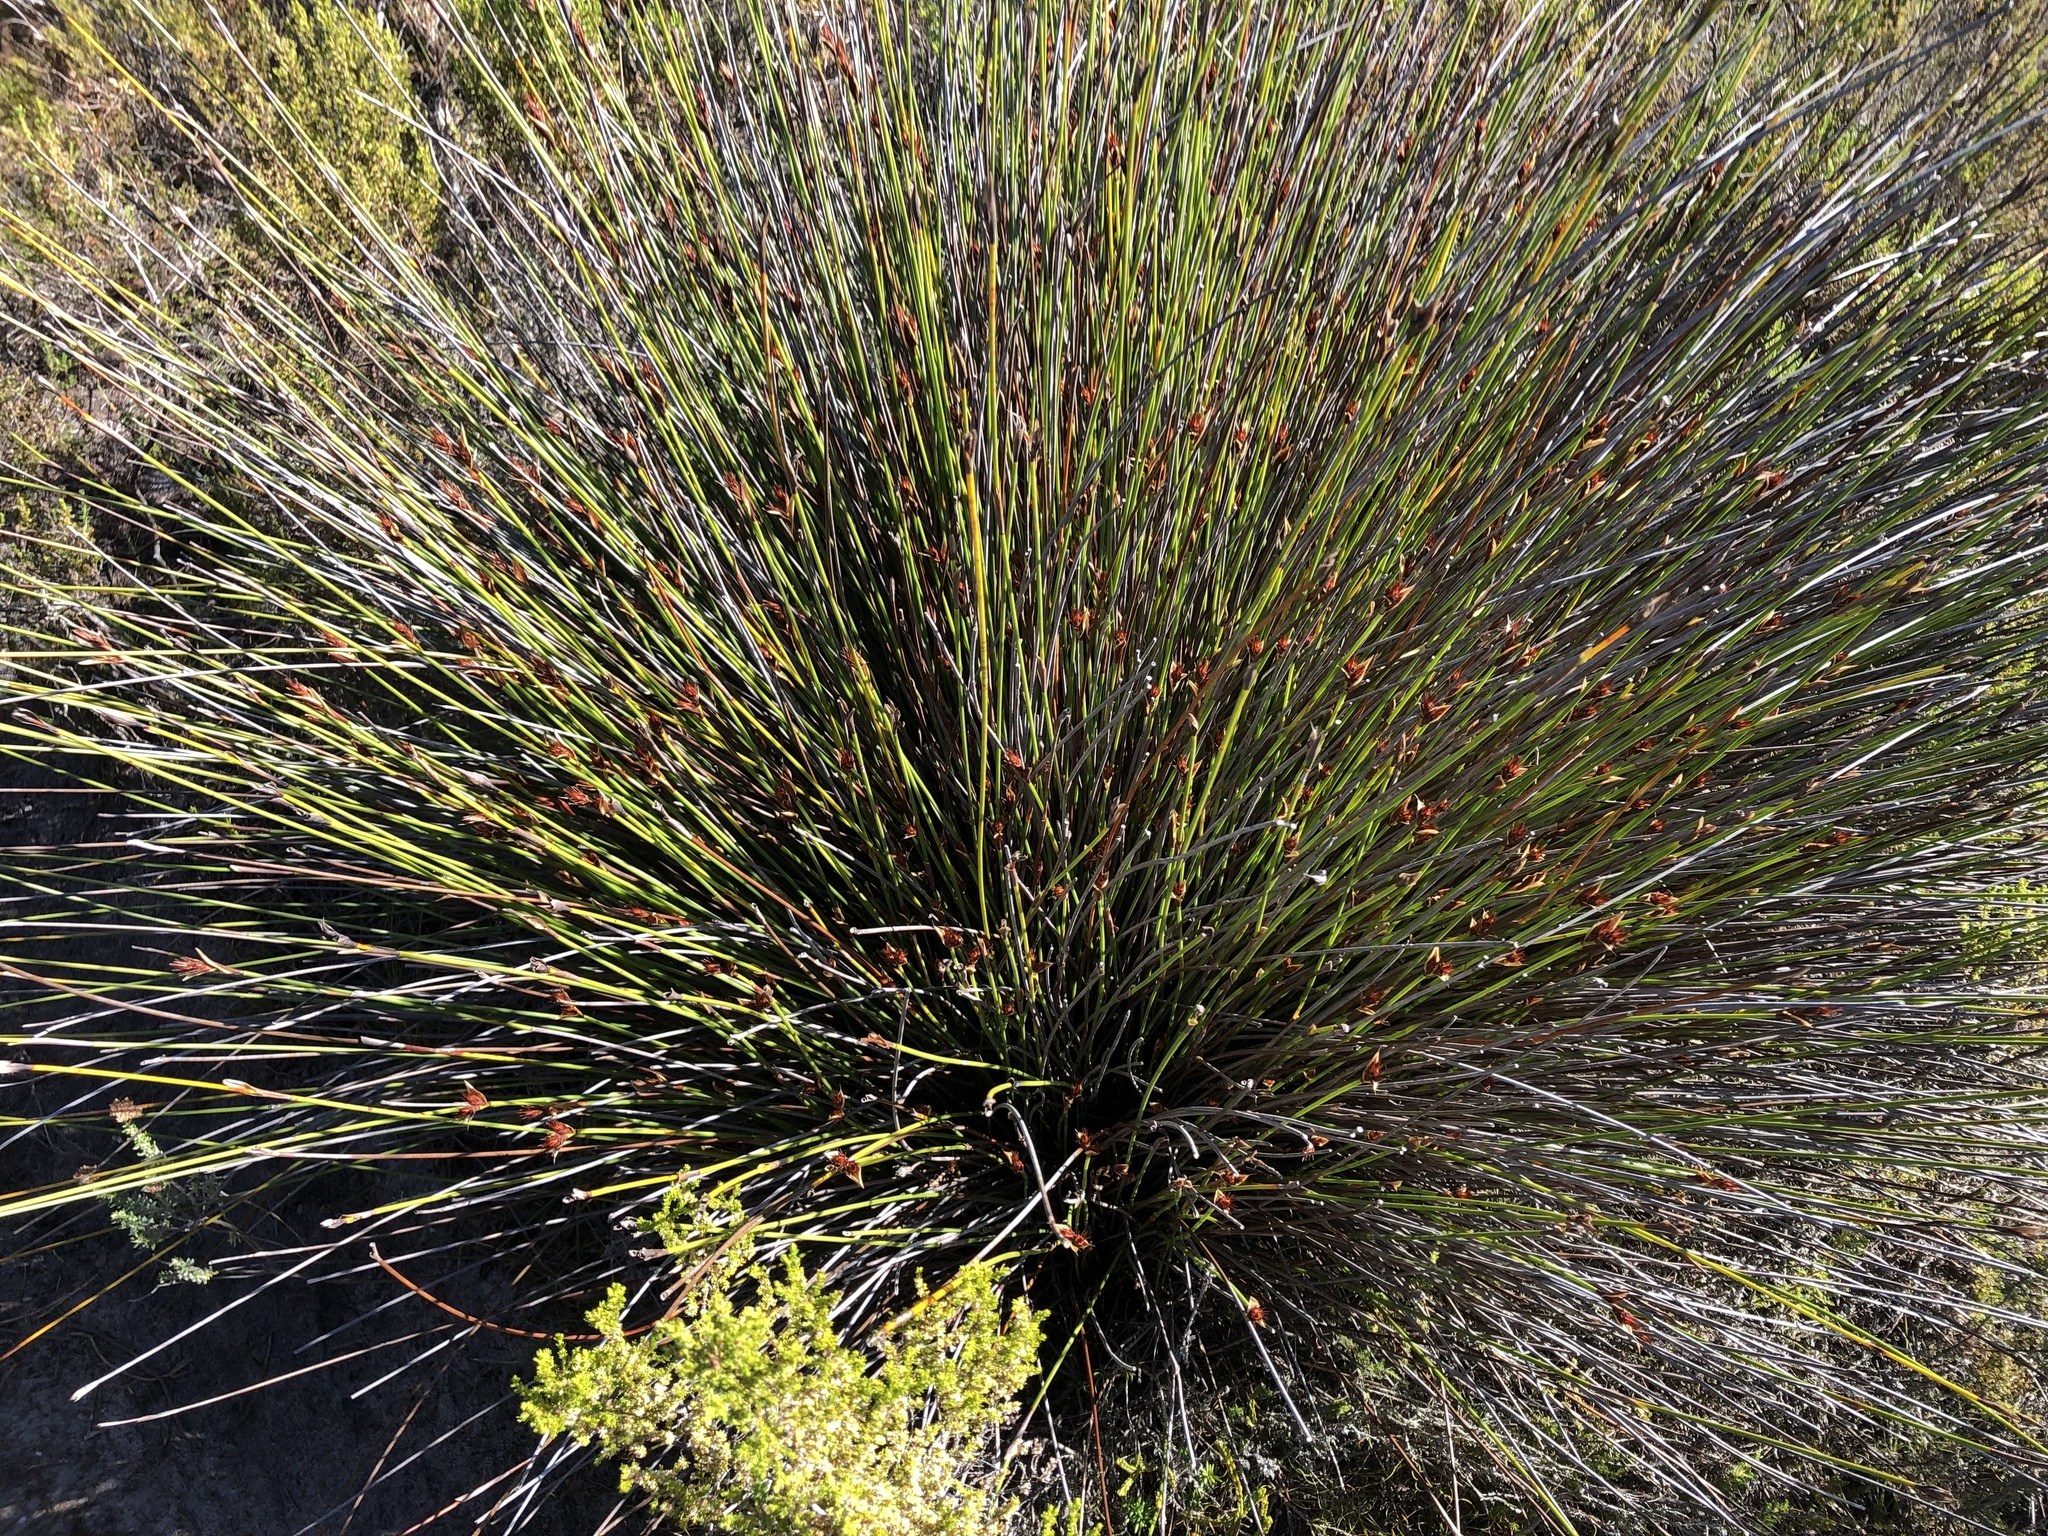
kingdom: Plantae
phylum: Tracheophyta
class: Liliopsida
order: Poales
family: Restionaceae
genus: Hypodiscus
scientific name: Hypodiscus aristatus
